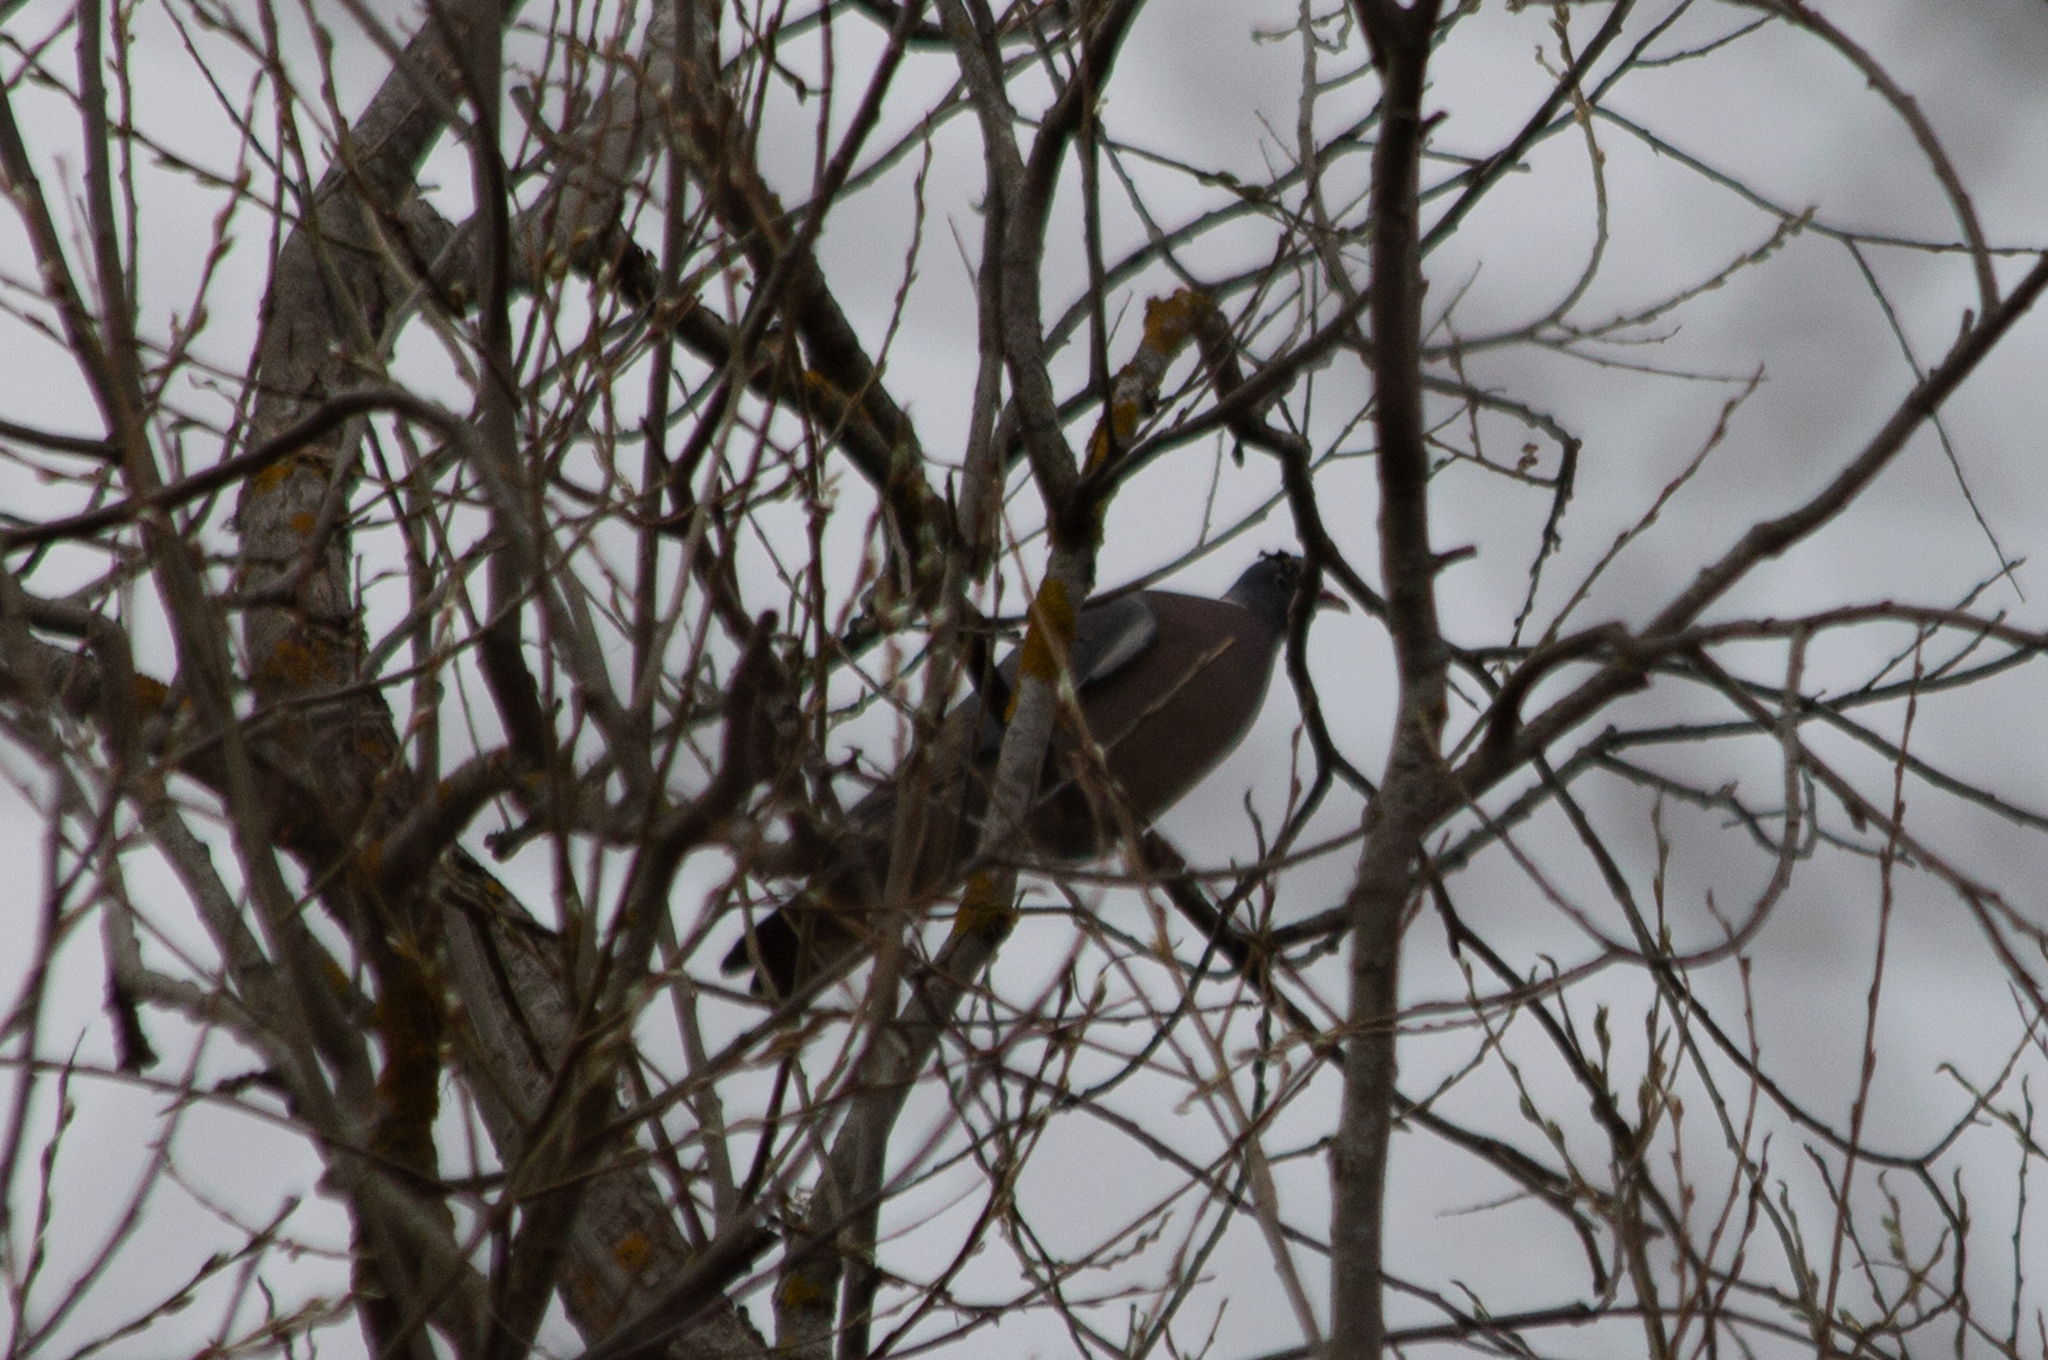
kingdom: Animalia
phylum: Chordata
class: Aves
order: Columbiformes
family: Columbidae
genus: Columba
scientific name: Columba palumbus
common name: Common wood pigeon
